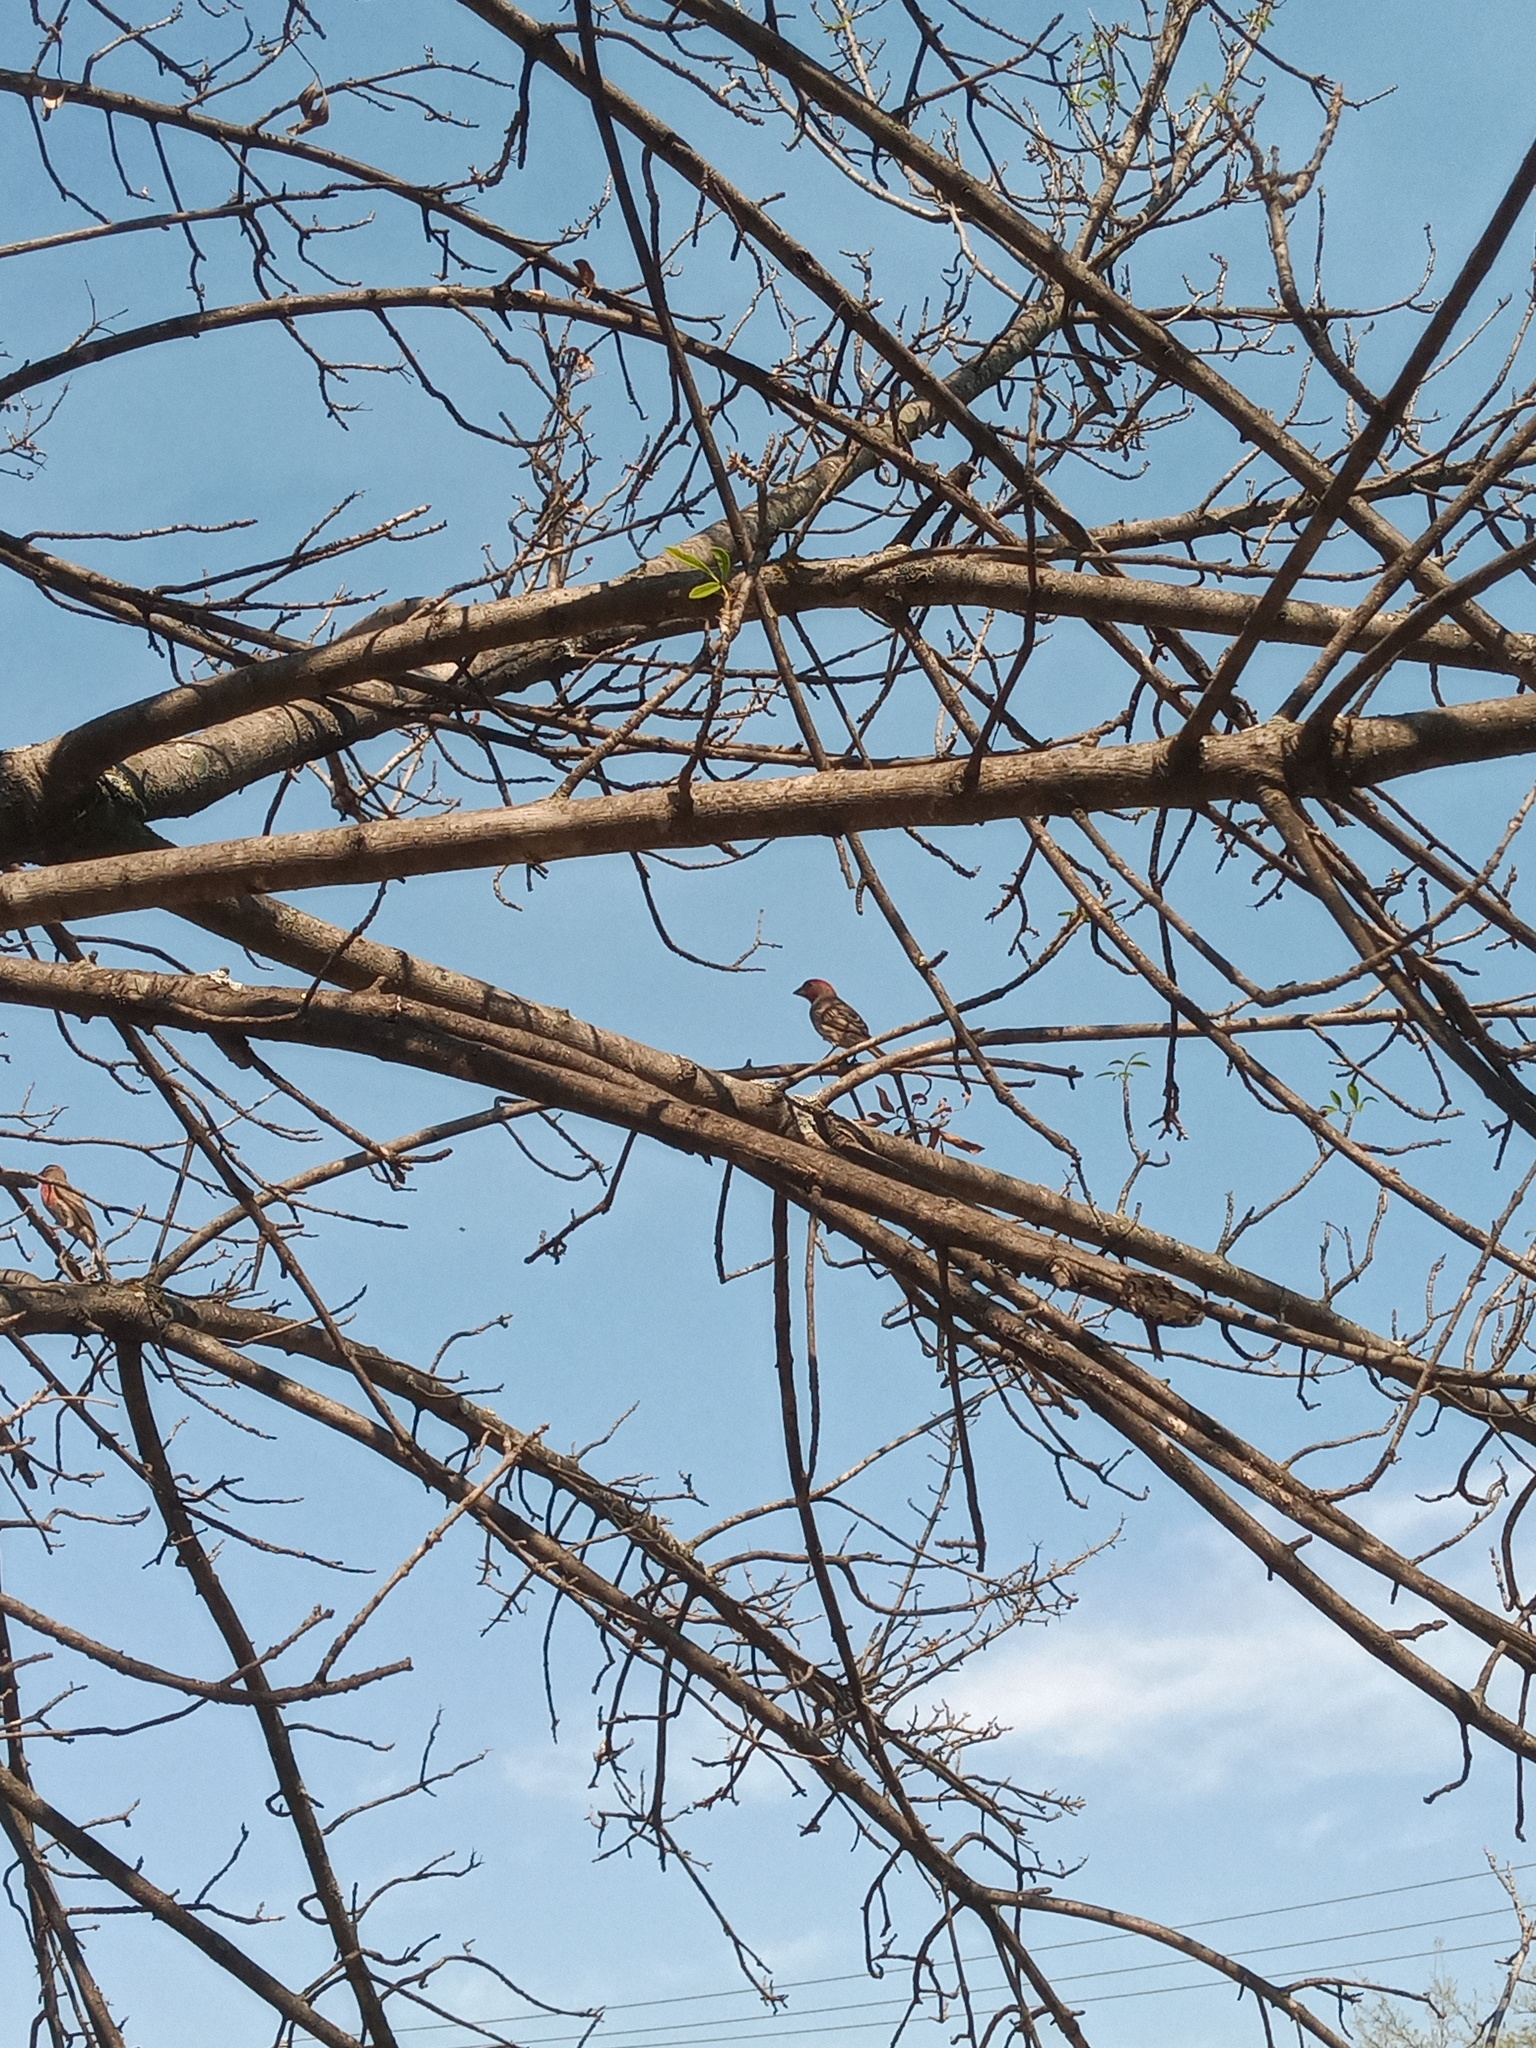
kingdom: Animalia
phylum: Chordata
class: Aves
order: Passeriformes
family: Fringillidae
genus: Haemorhous
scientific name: Haemorhous mexicanus
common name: House finch
